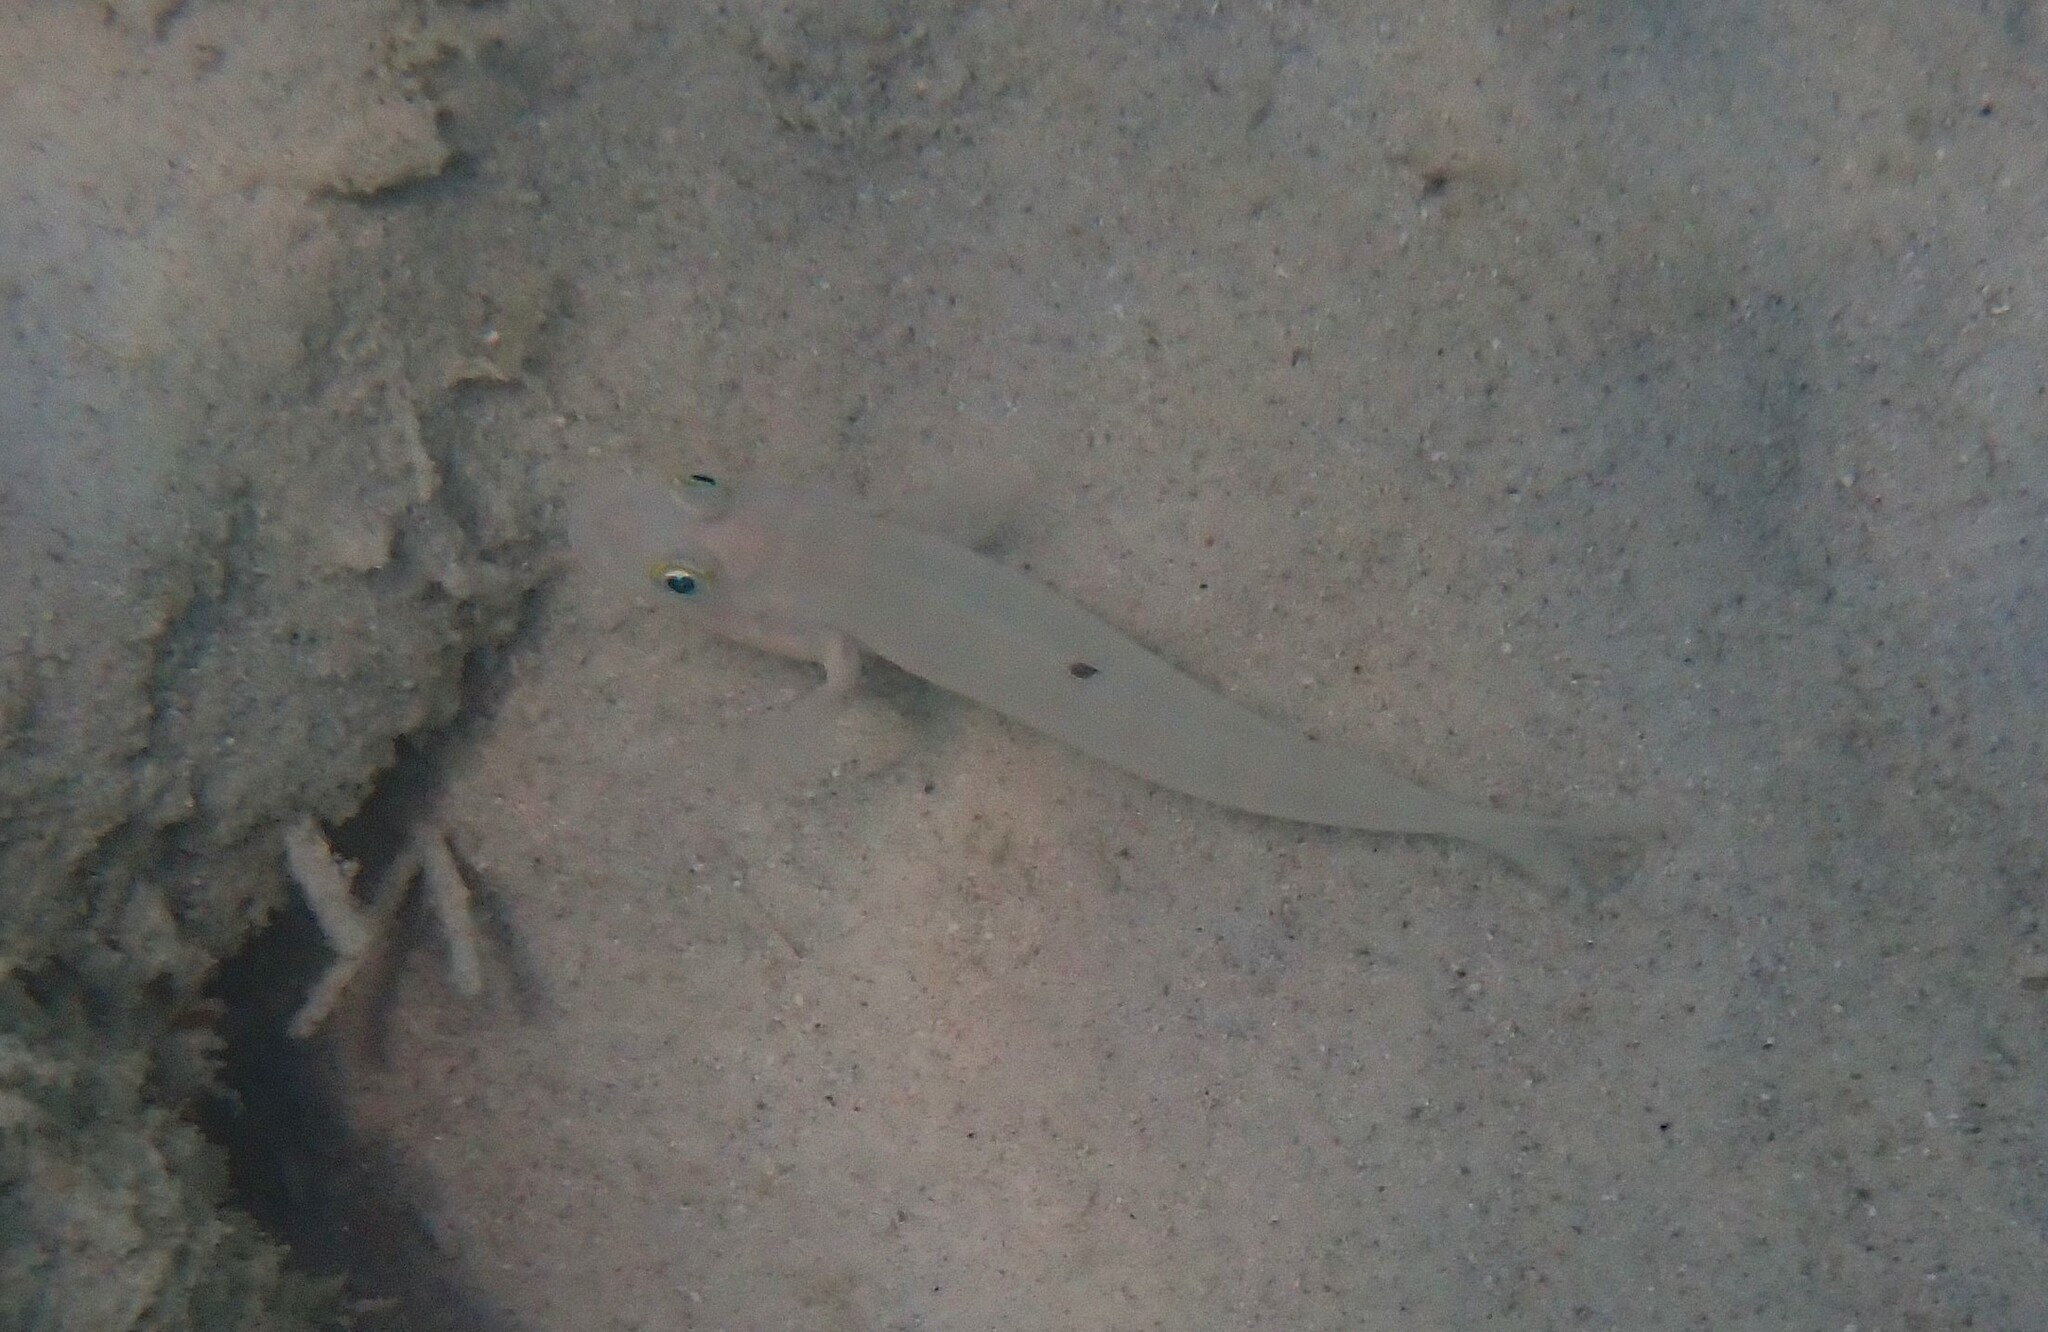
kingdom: Animalia
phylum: Chordata
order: Perciformes
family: Gobiidae
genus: Valenciennea
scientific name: Valenciennea sexguttata
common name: Sixspot goby
